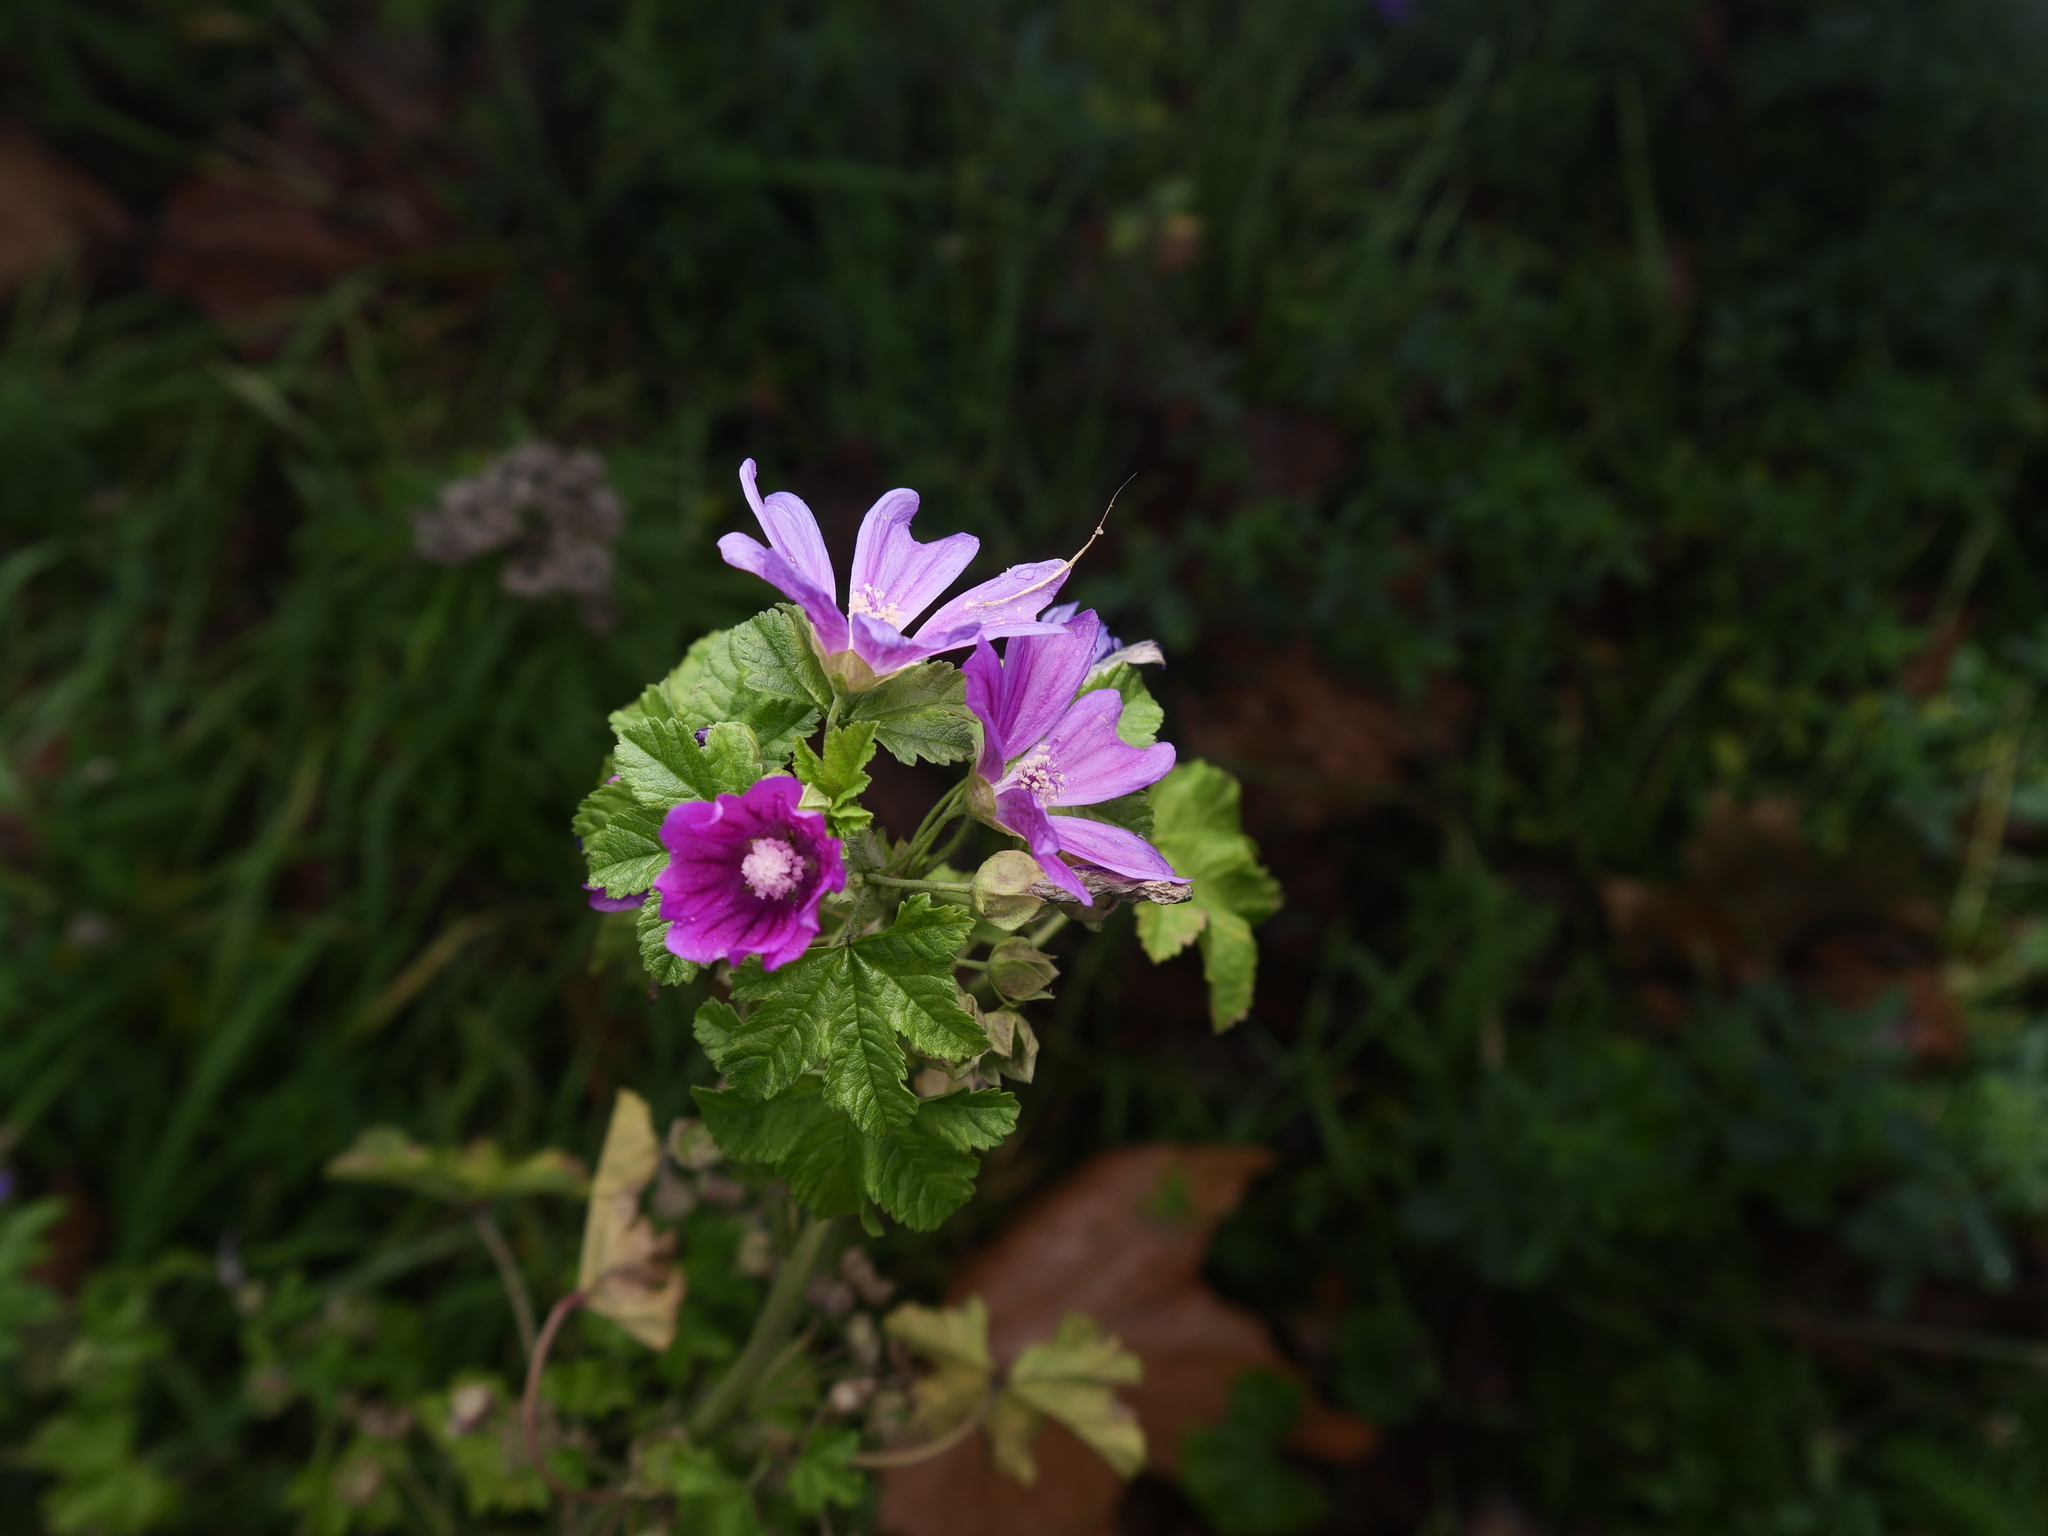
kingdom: Plantae
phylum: Tracheophyta
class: Magnoliopsida
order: Malvales
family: Malvaceae
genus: Malva
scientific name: Malva sylvestris
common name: Common mallow
